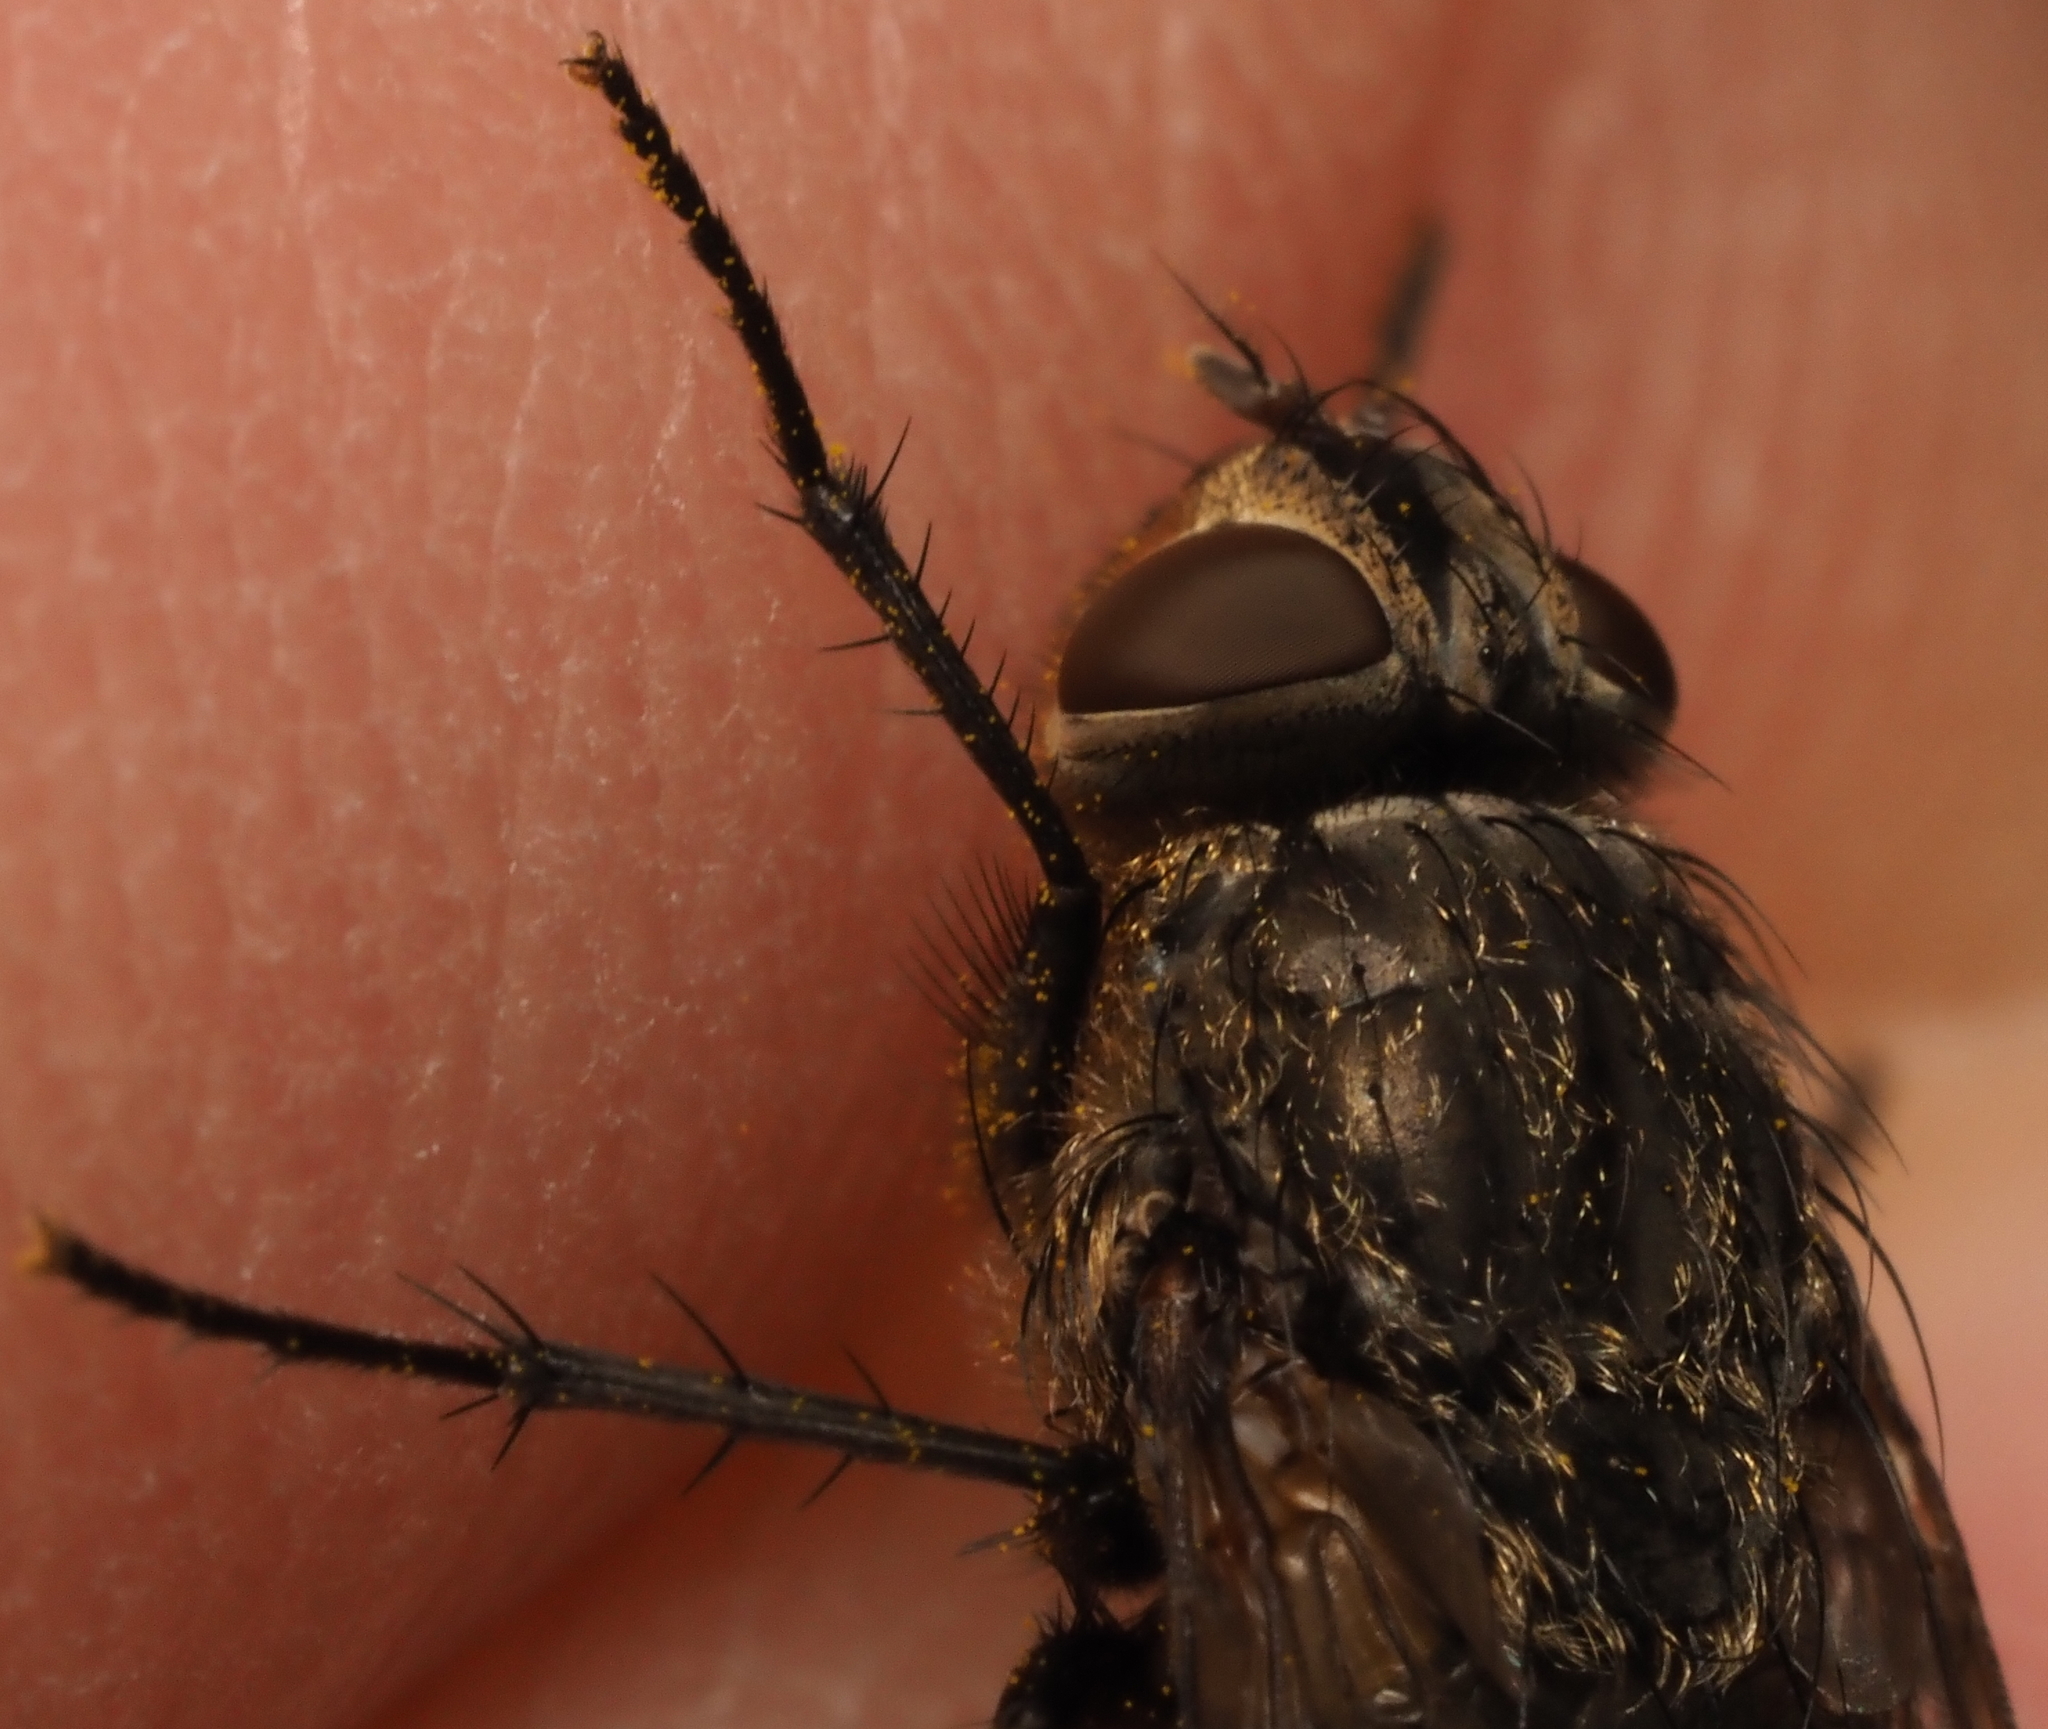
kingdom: Animalia
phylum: Arthropoda
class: Insecta
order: Diptera
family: Polleniidae
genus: Pollenia
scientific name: Pollenia
